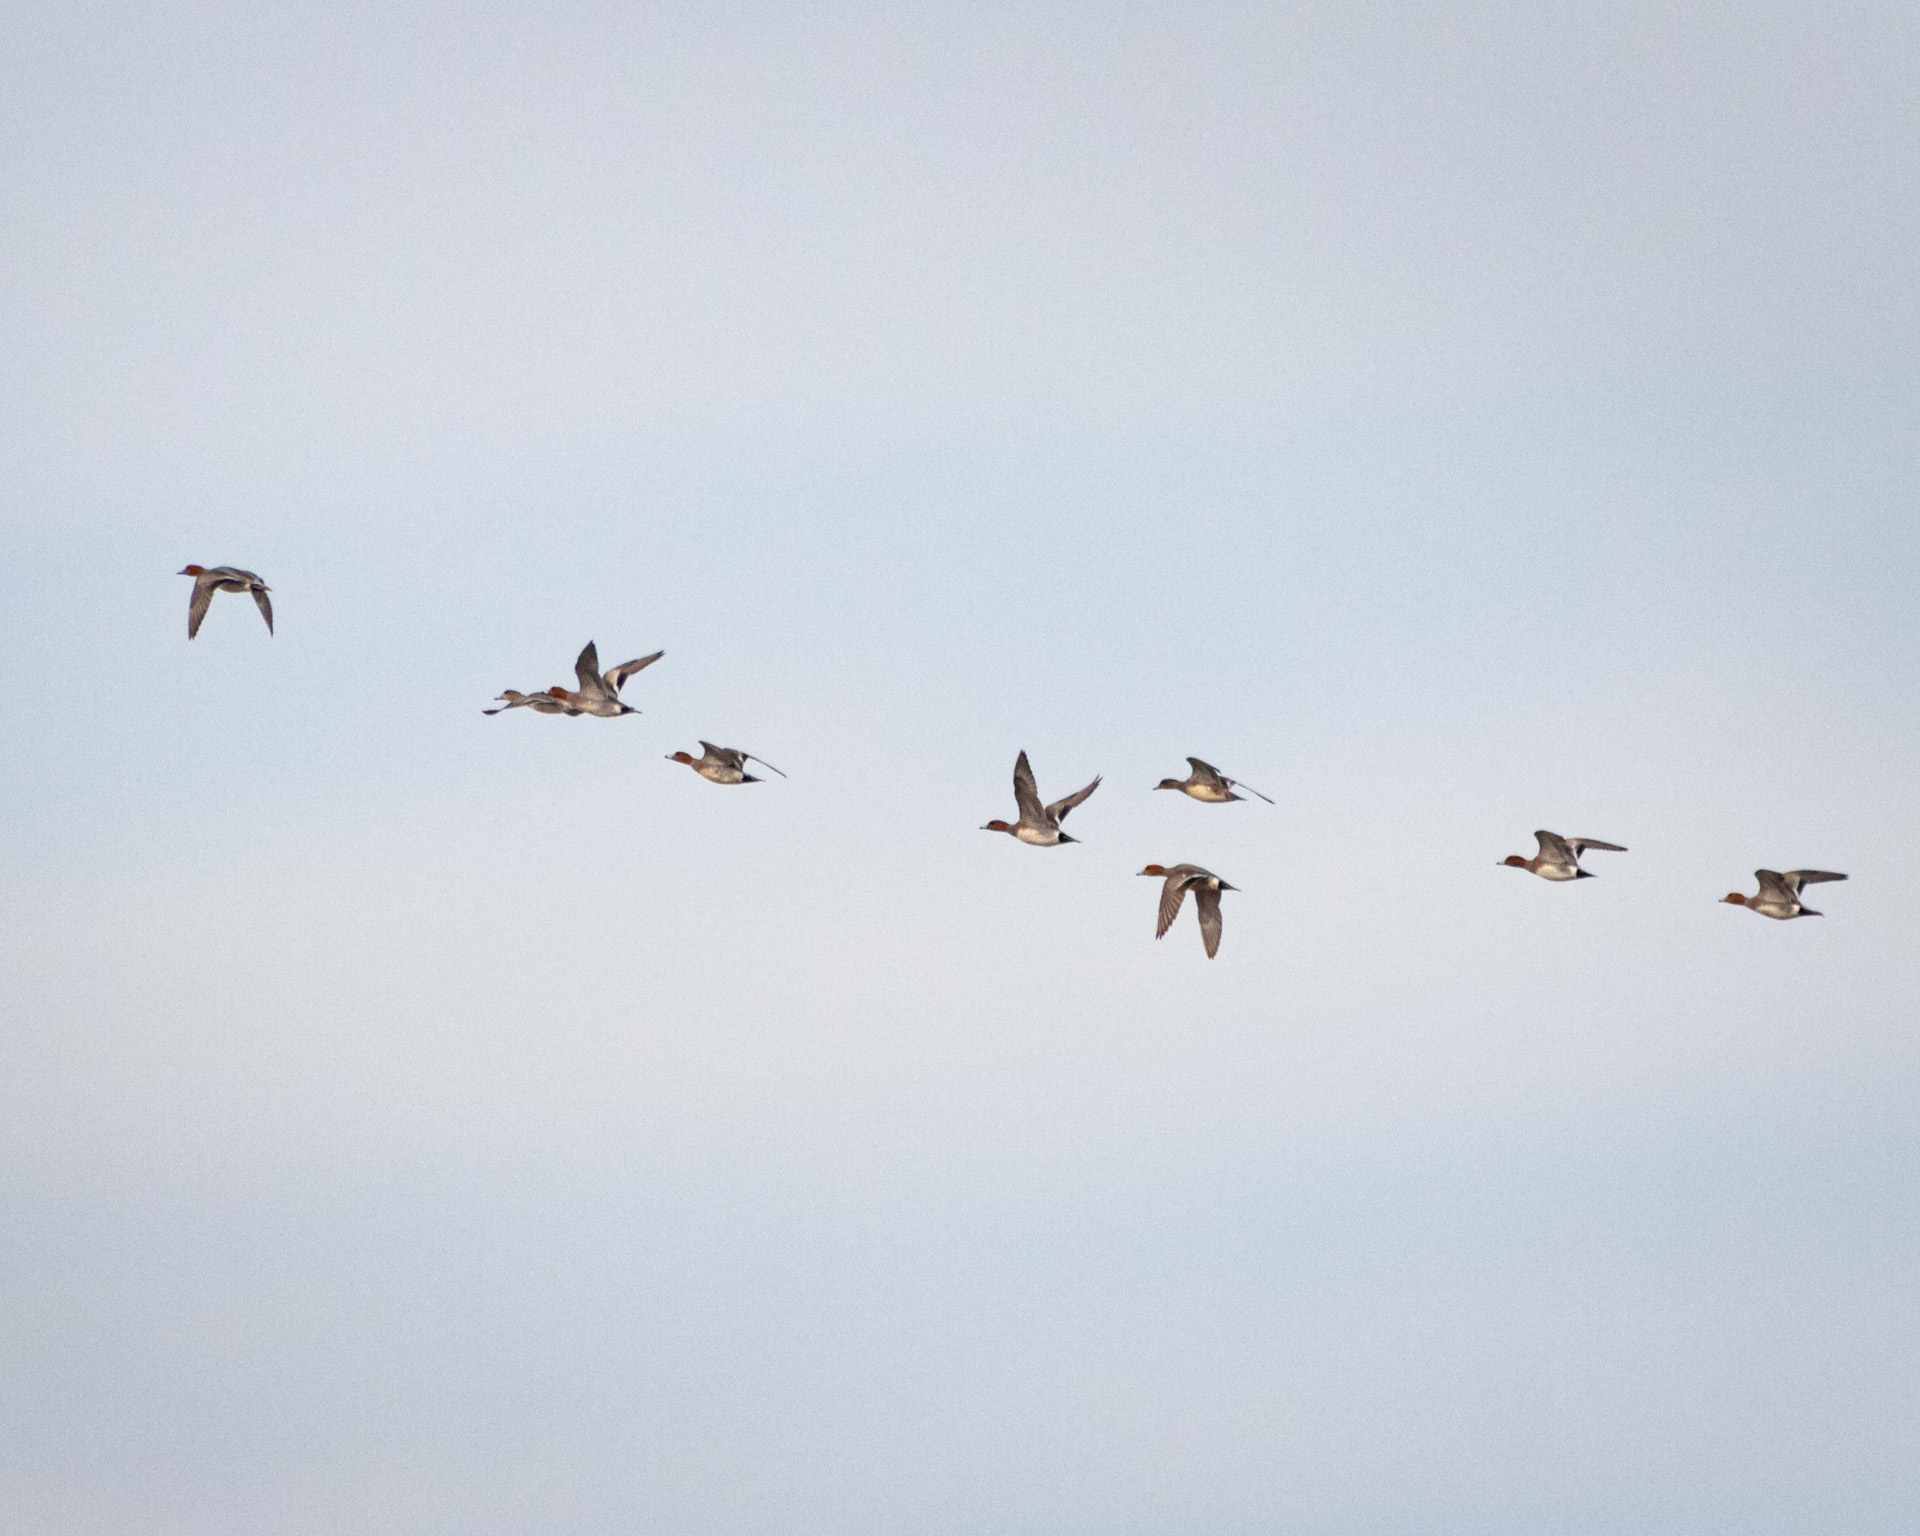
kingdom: Animalia
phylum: Chordata
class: Aves
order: Anseriformes
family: Anatidae
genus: Mareca
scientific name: Mareca penelope
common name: Eurasian wigeon
